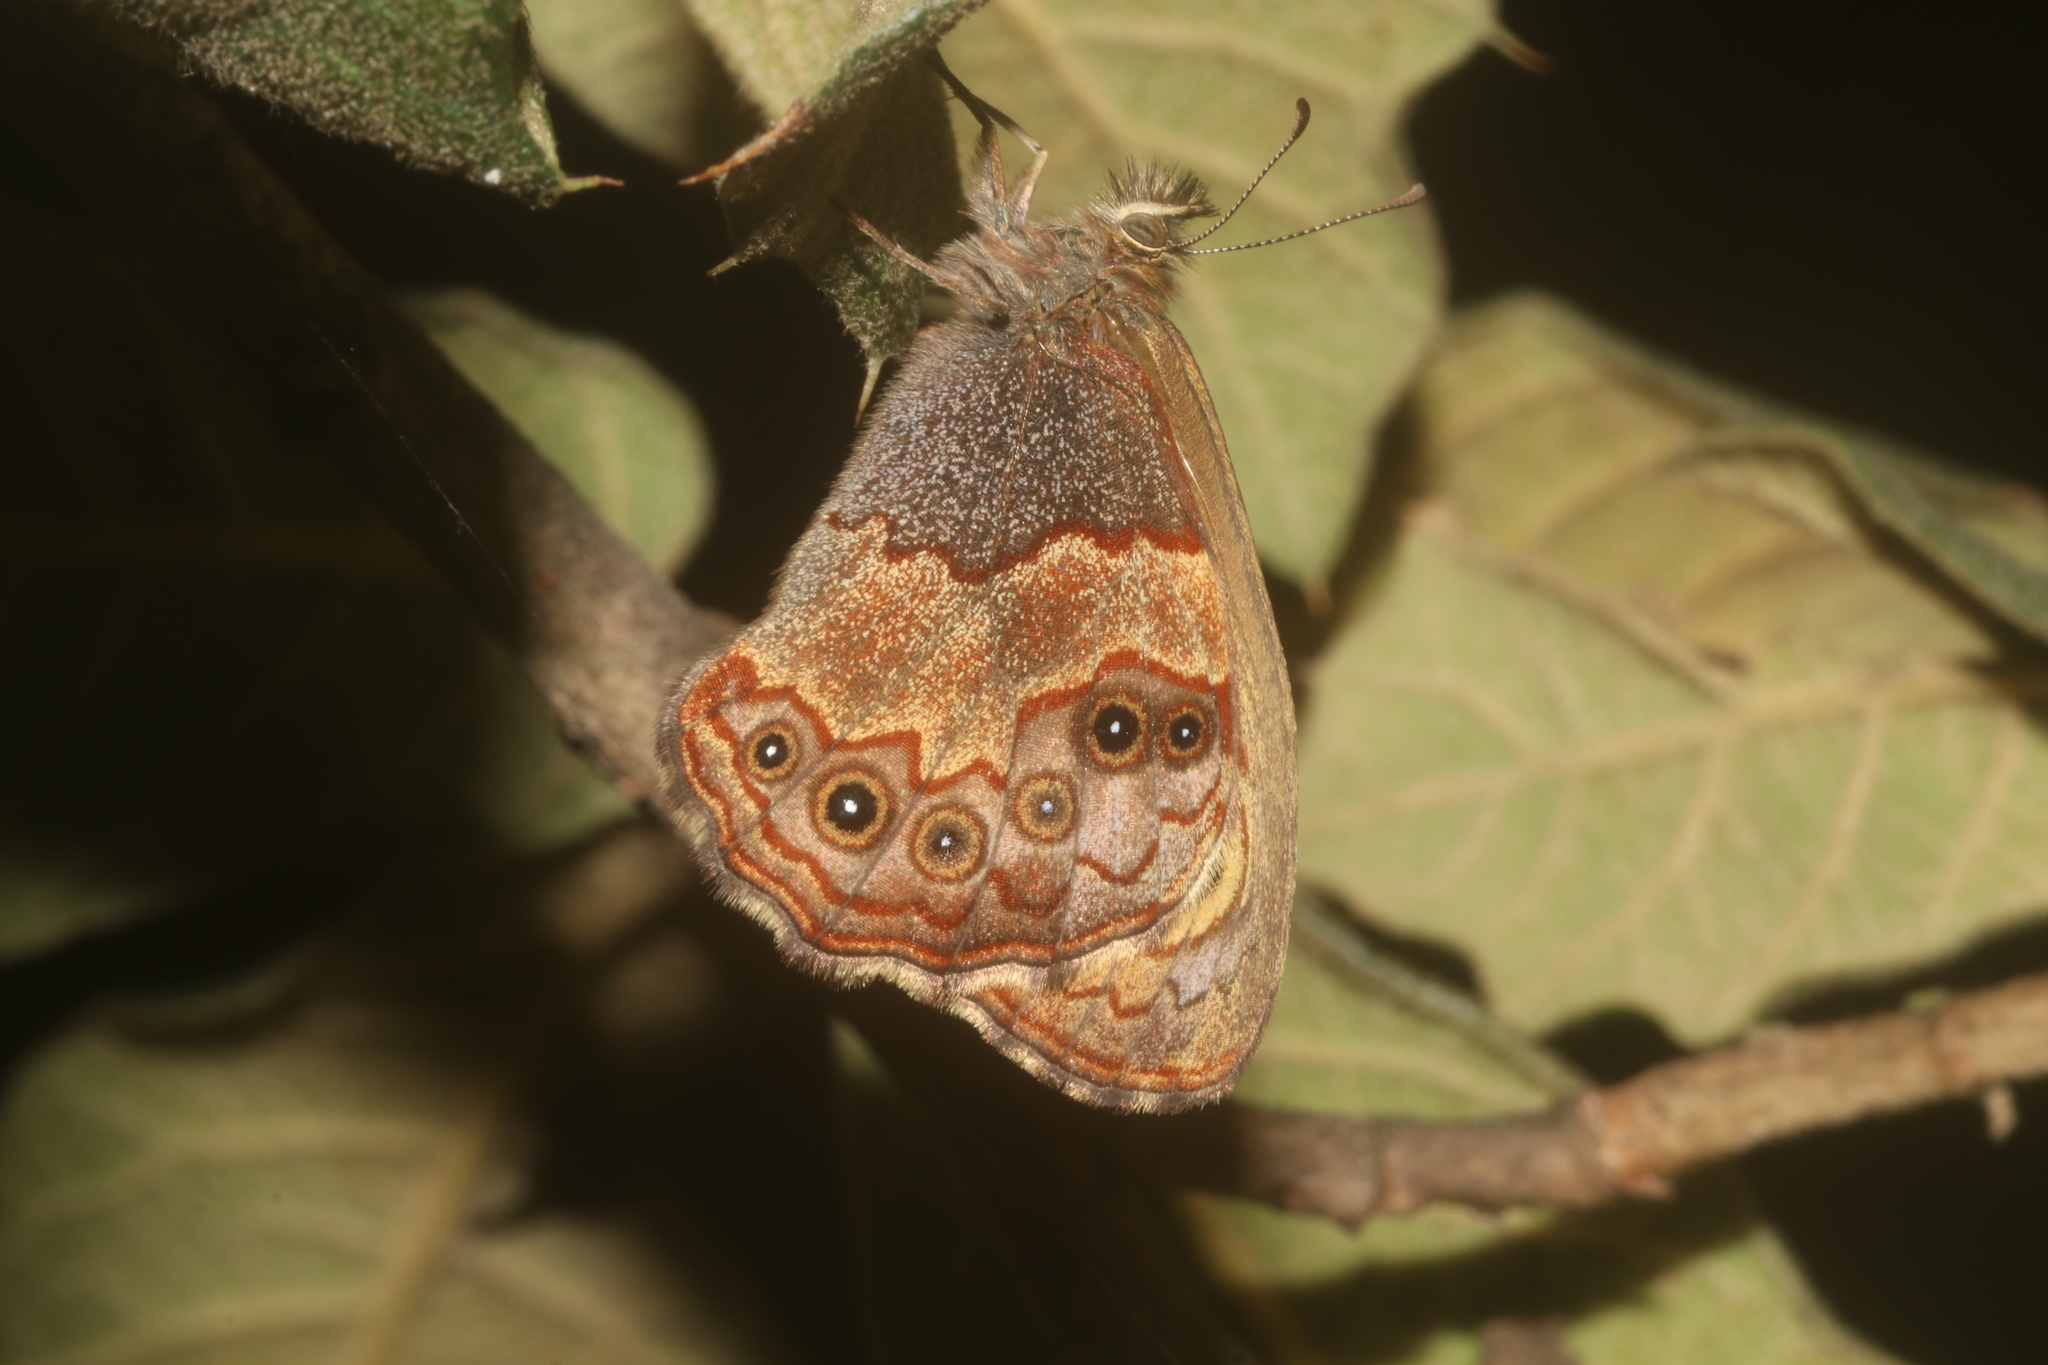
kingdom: Animalia
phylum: Arthropoda
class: Insecta
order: Lepidoptera
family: Nymphalidae
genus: Paramecera
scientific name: Paramecera xicaque
